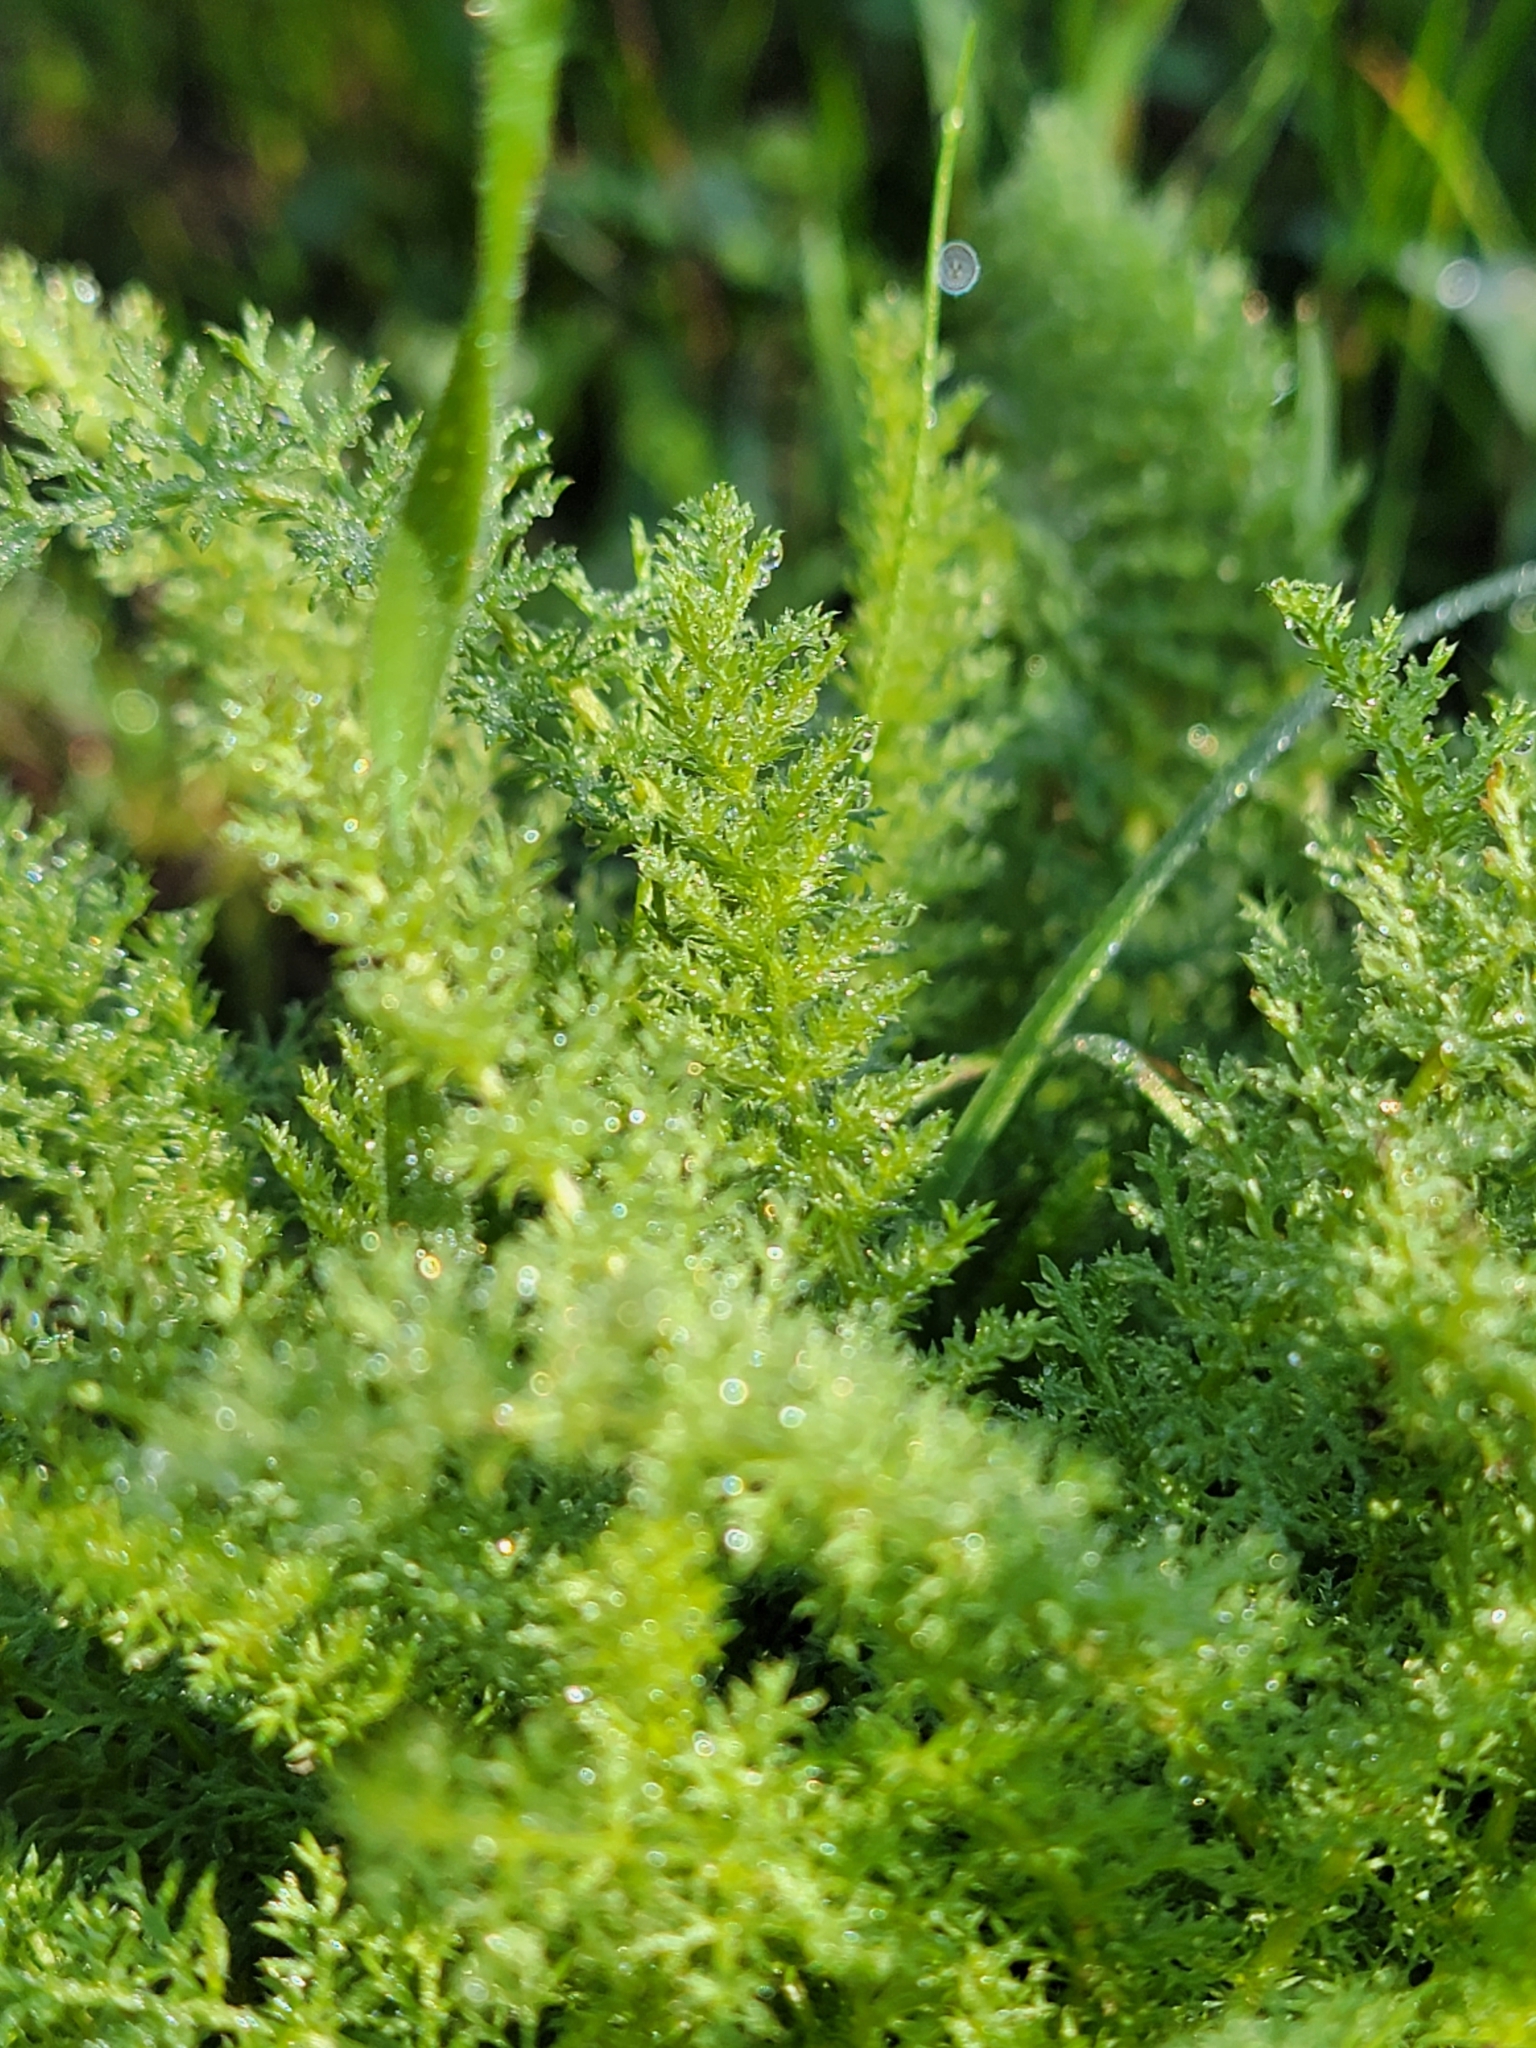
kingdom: Plantae
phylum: Tracheophyta
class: Magnoliopsida
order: Asterales
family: Asteraceae
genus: Achillea
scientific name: Achillea millefolium
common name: Yarrow
